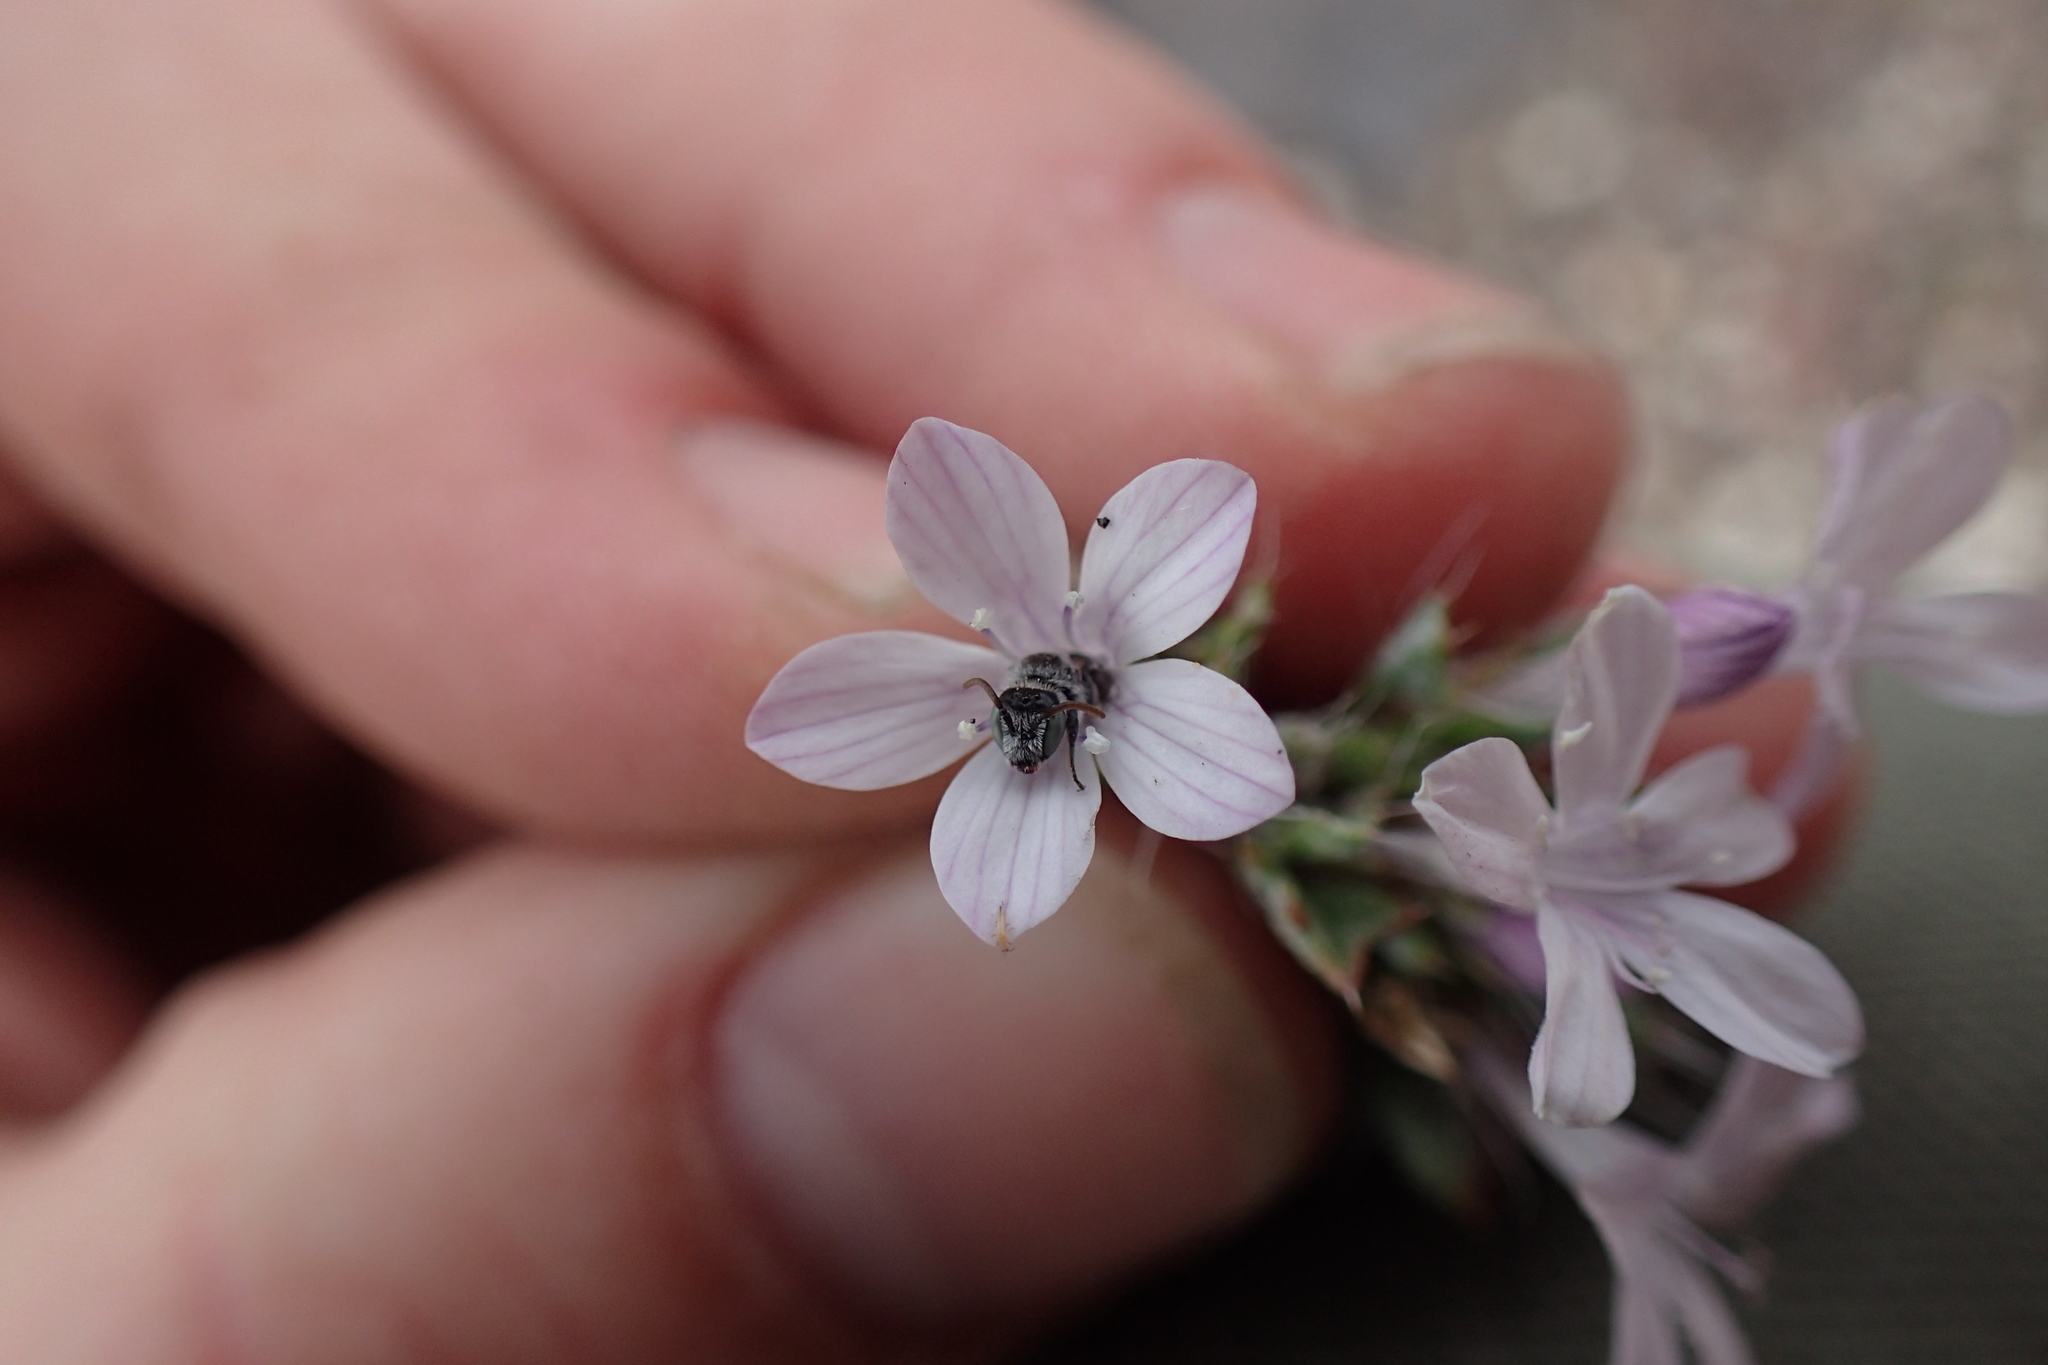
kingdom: Animalia
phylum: Arthropoda
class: Insecta
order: Hymenoptera
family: Melittidae
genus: Hesperapis
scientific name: Hesperapis
